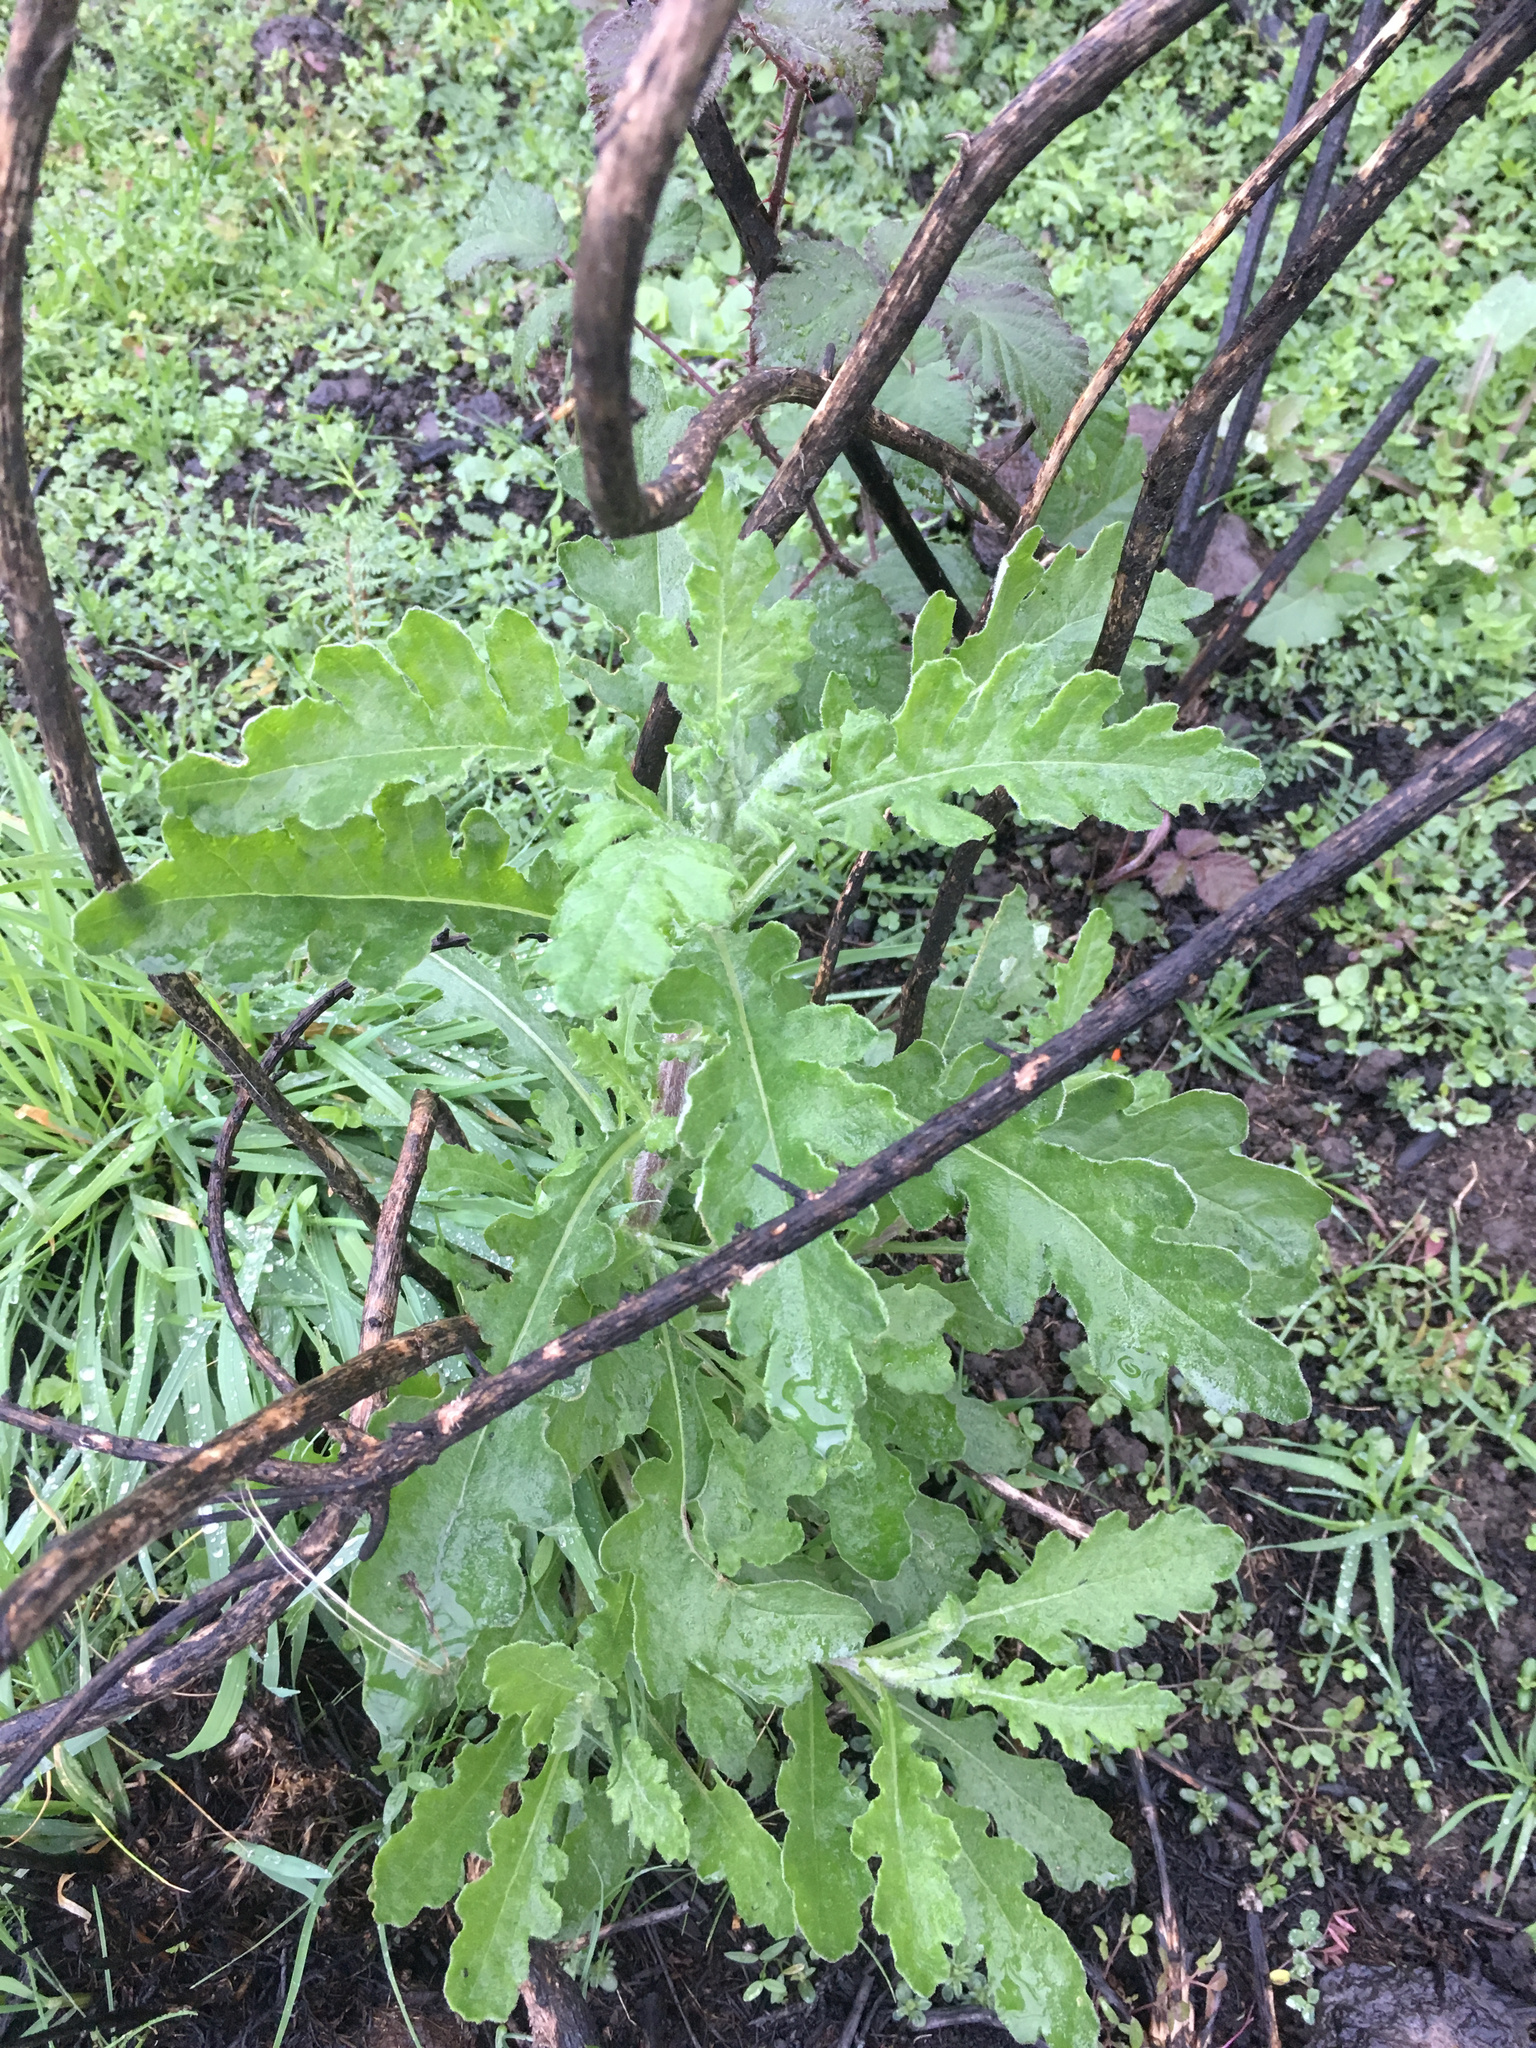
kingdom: Plantae
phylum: Tracheophyta
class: Magnoliopsida
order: Asterales
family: Asteraceae
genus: Senecio
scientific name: Senecio glomeratus
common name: Cutleaf burnweed
